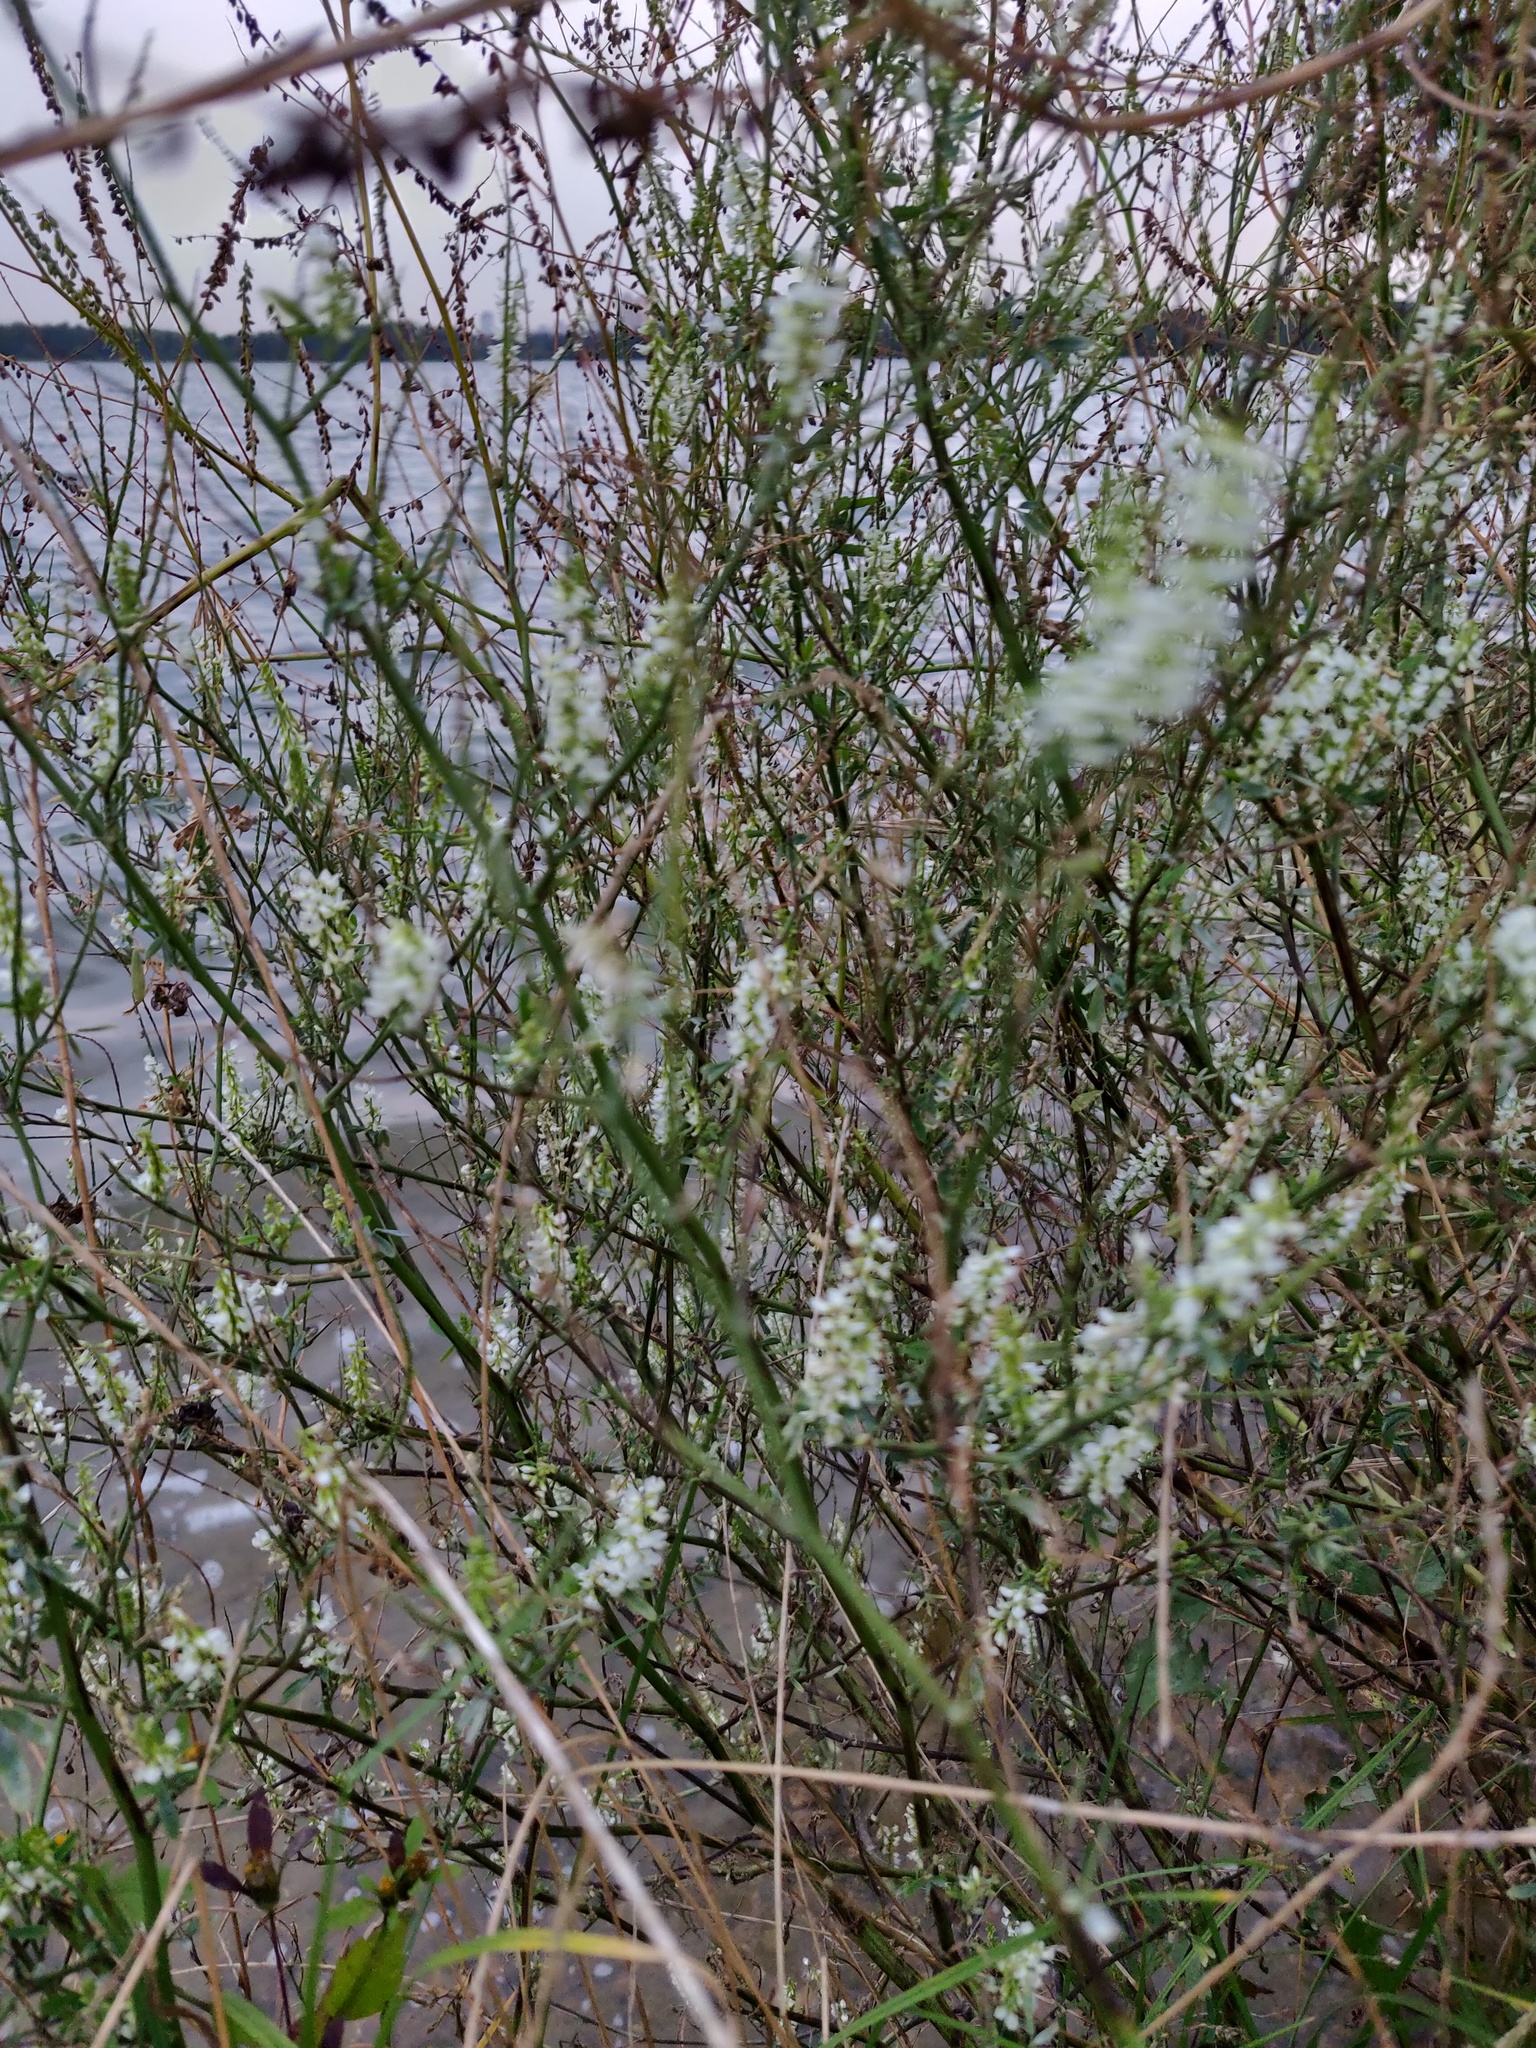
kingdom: Plantae
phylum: Tracheophyta
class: Magnoliopsida
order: Fabales
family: Fabaceae
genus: Melilotus
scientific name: Melilotus albus
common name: White melilot
